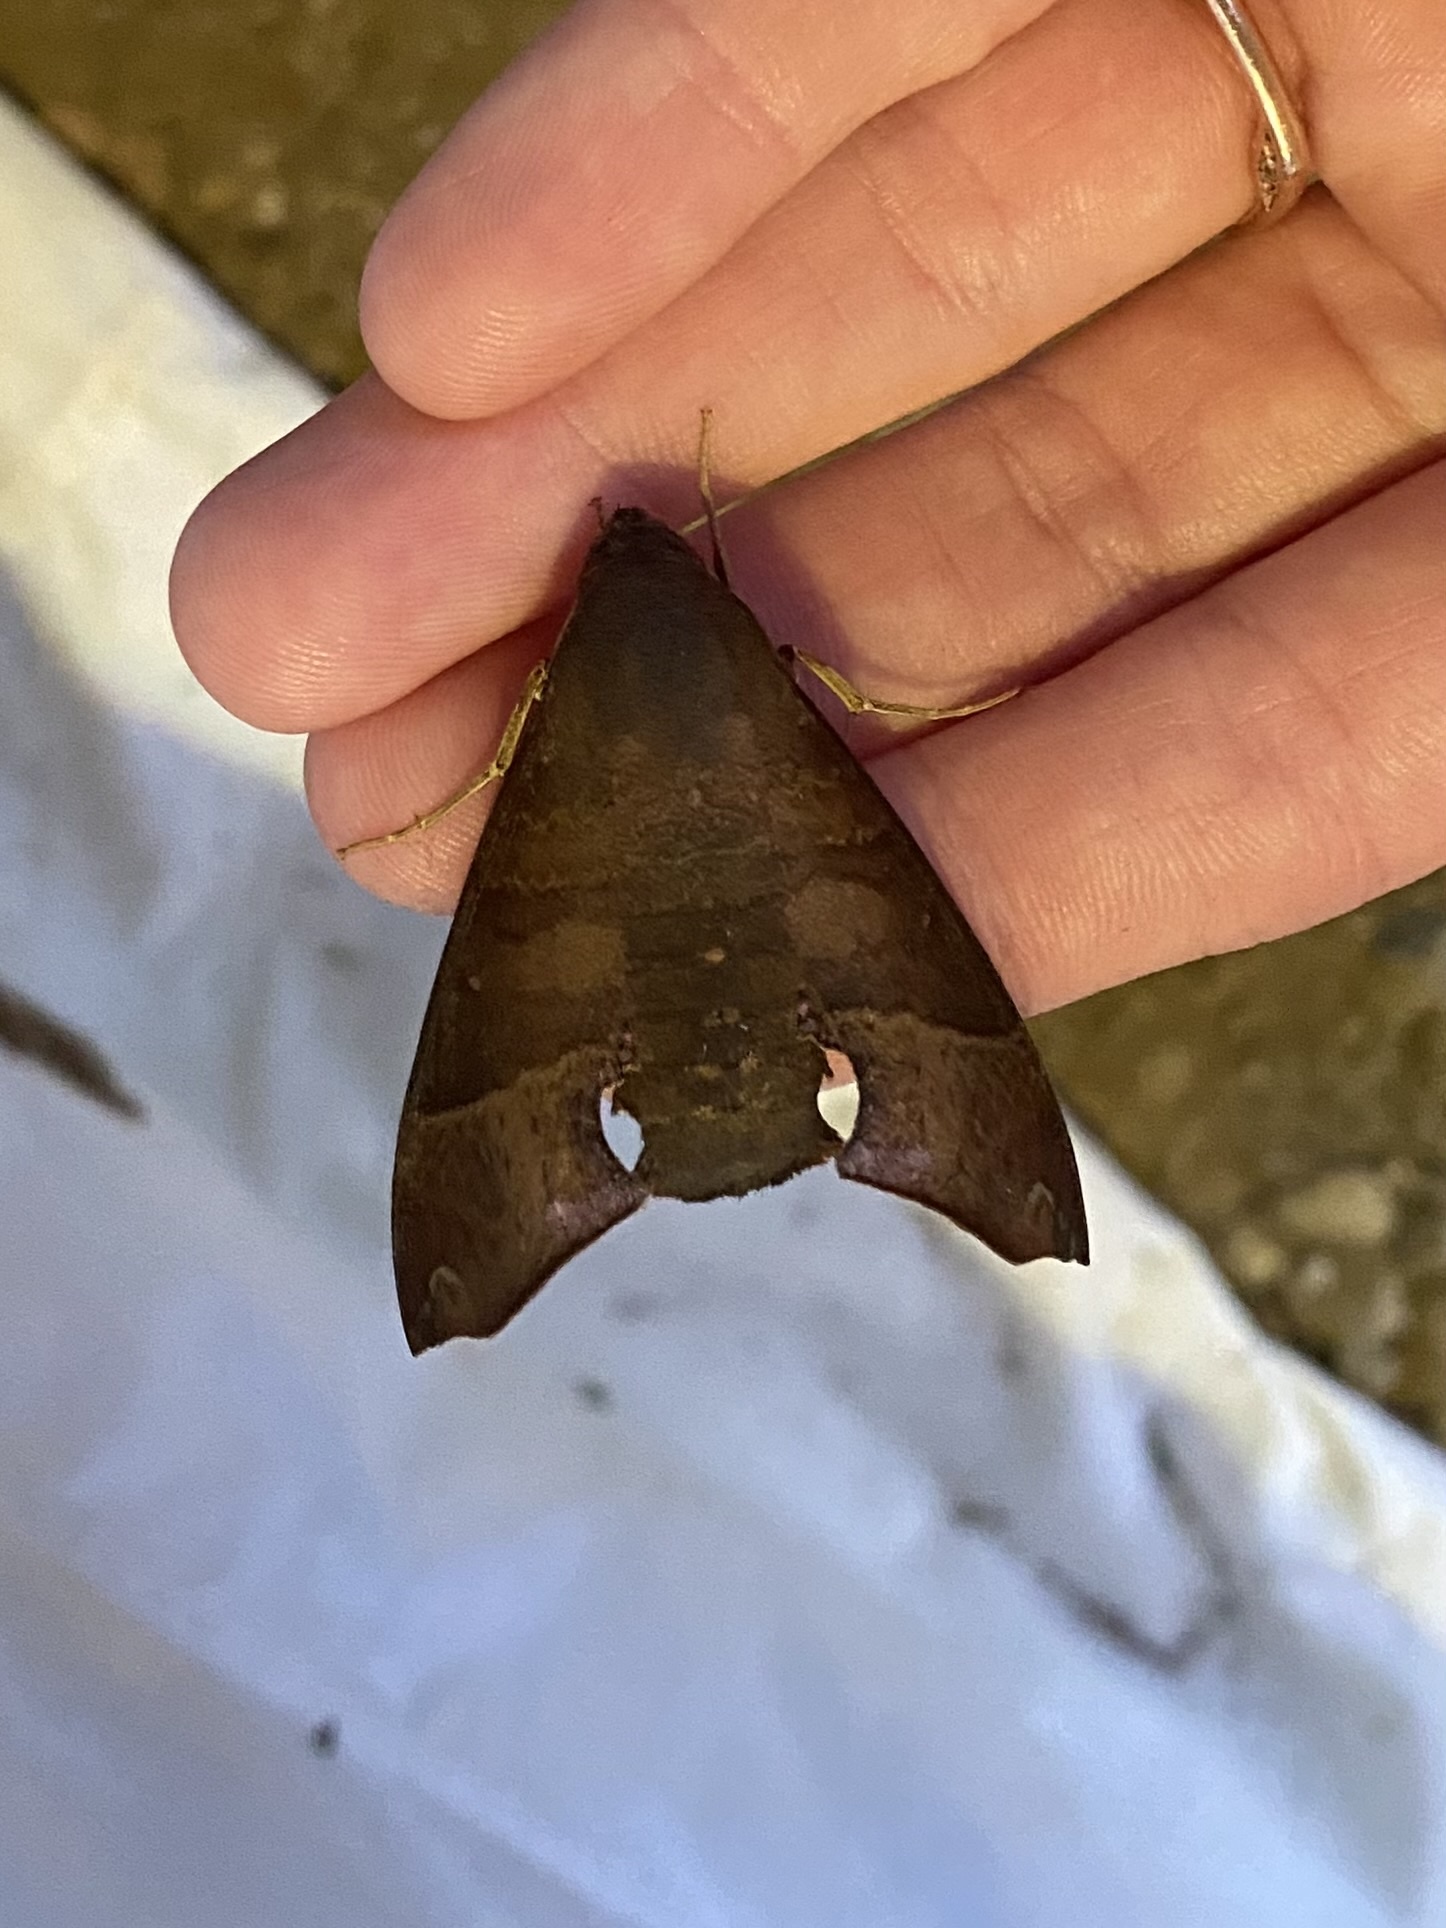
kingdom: Animalia
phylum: Arthropoda
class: Insecta
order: Lepidoptera
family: Sphingidae
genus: Pachygonidia
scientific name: Pachygonidia martini
